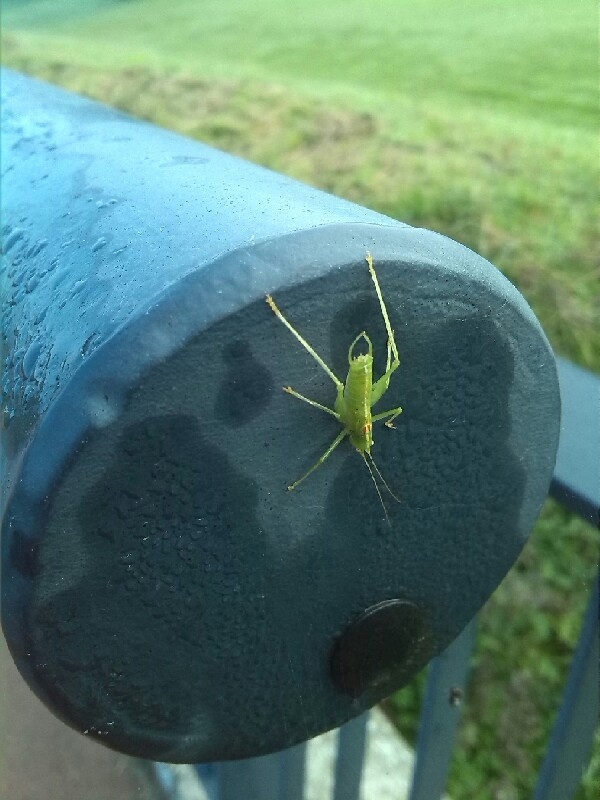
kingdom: Animalia
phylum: Arthropoda
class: Insecta
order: Orthoptera
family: Tettigoniidae
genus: Meconema
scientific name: Meconema meridionale
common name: Southern oak bush-cricket
